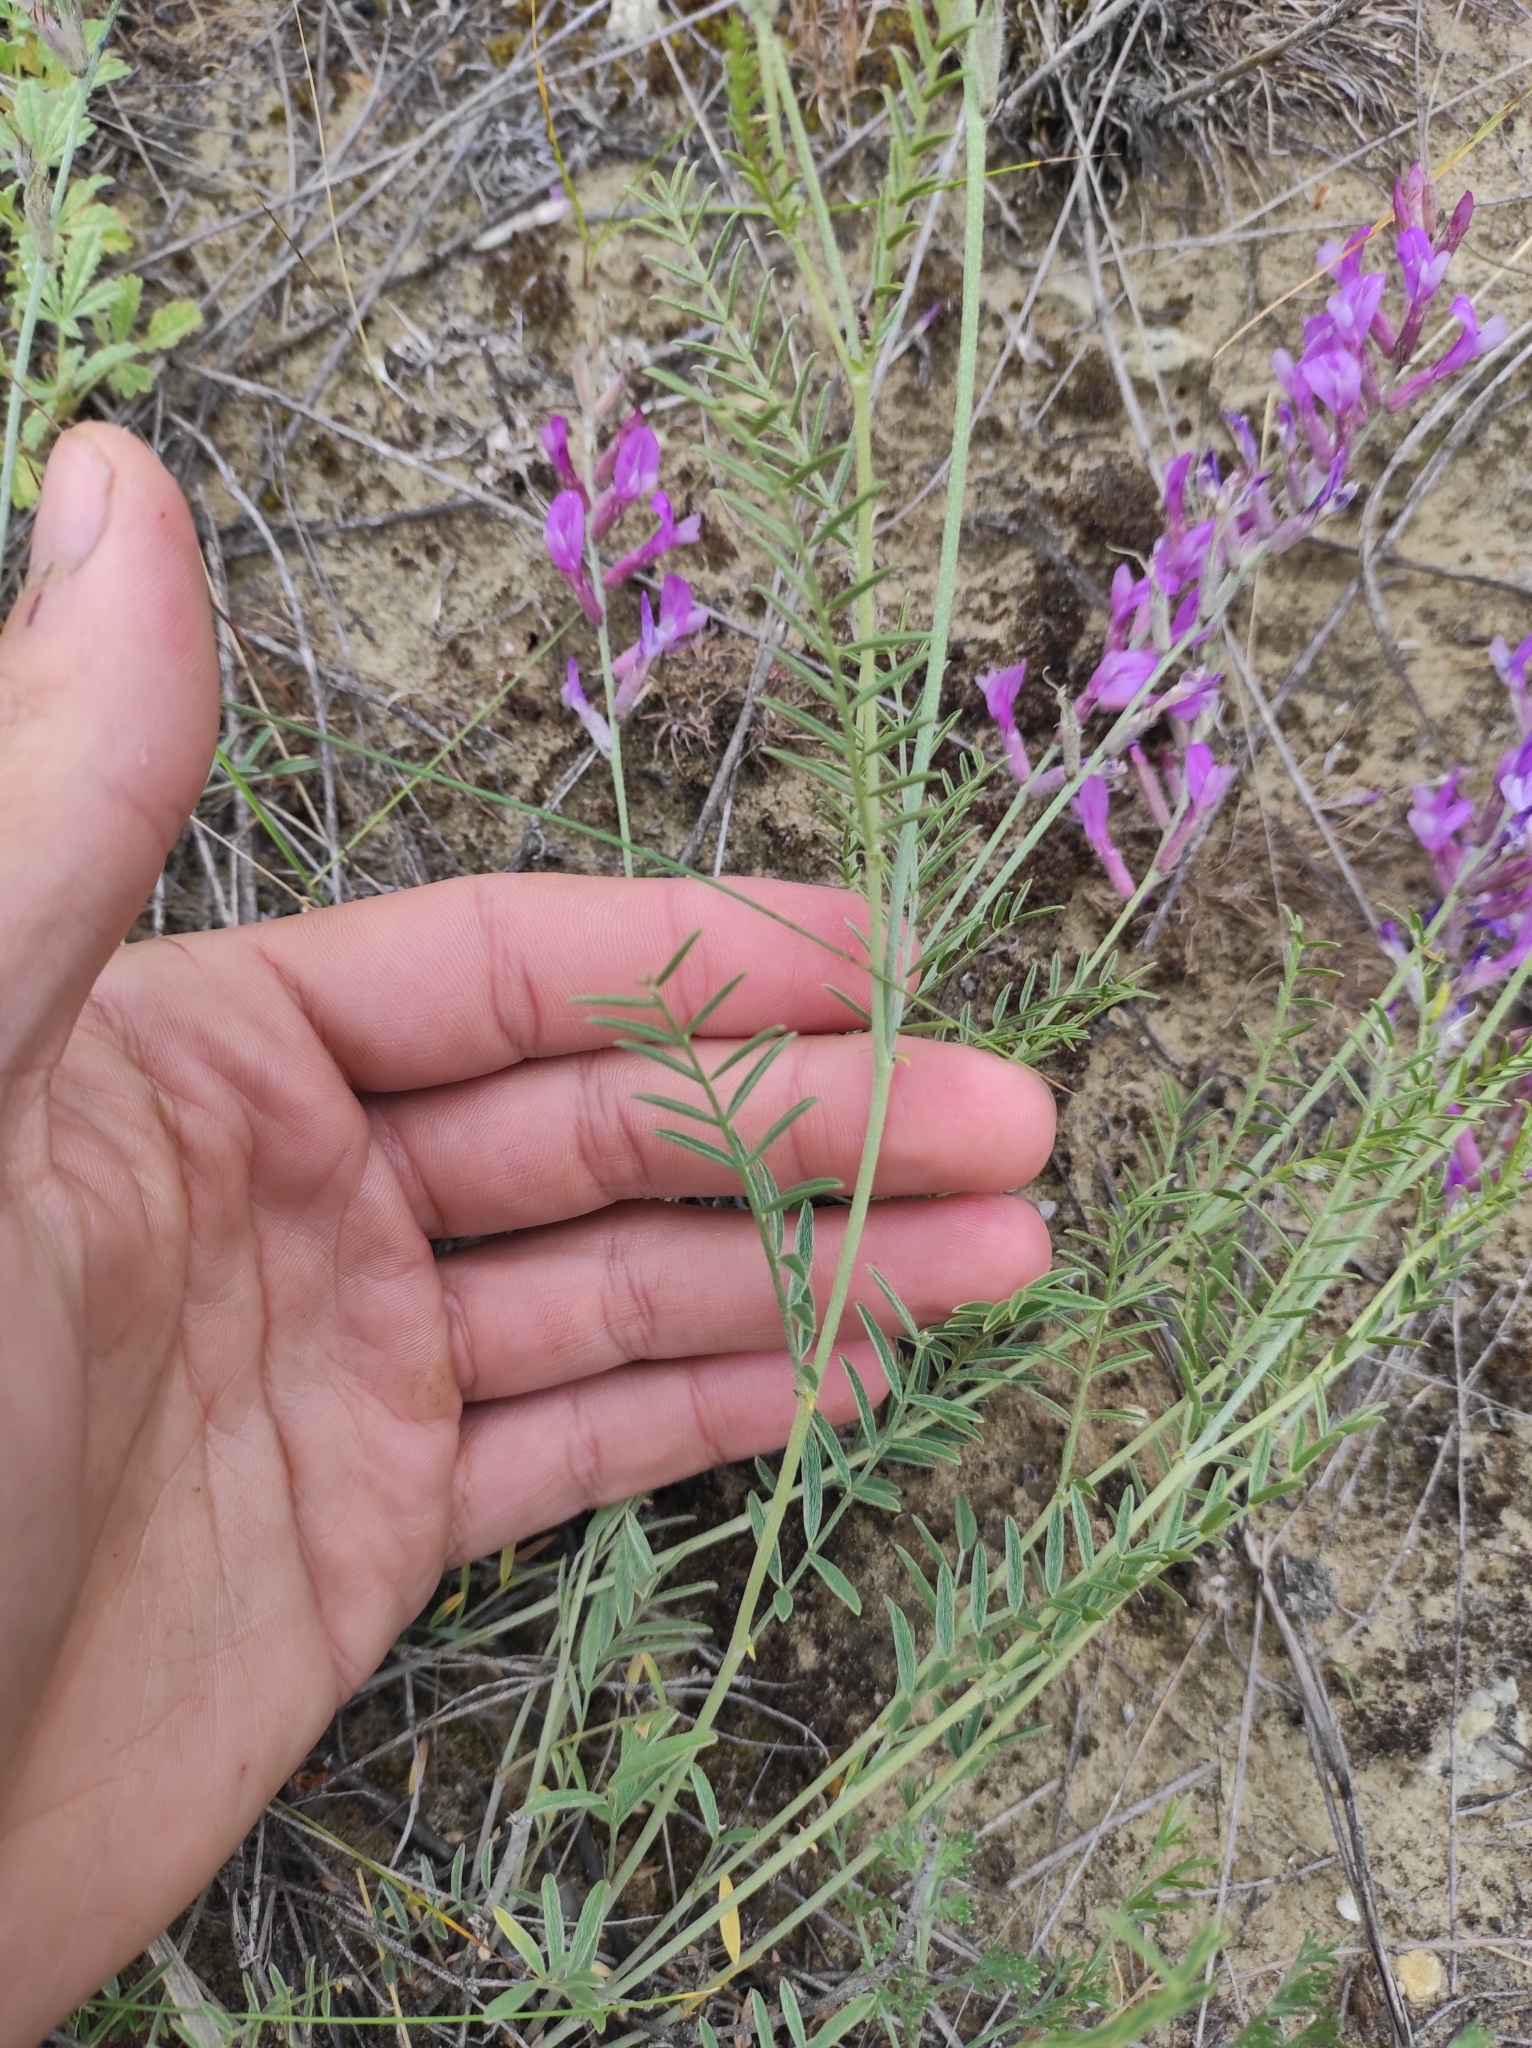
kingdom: Plantae
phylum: Tracheophyta
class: Magnoliopsida
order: Fabales
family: Fabaceae
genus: Astragalus
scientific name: Astragalus varius
